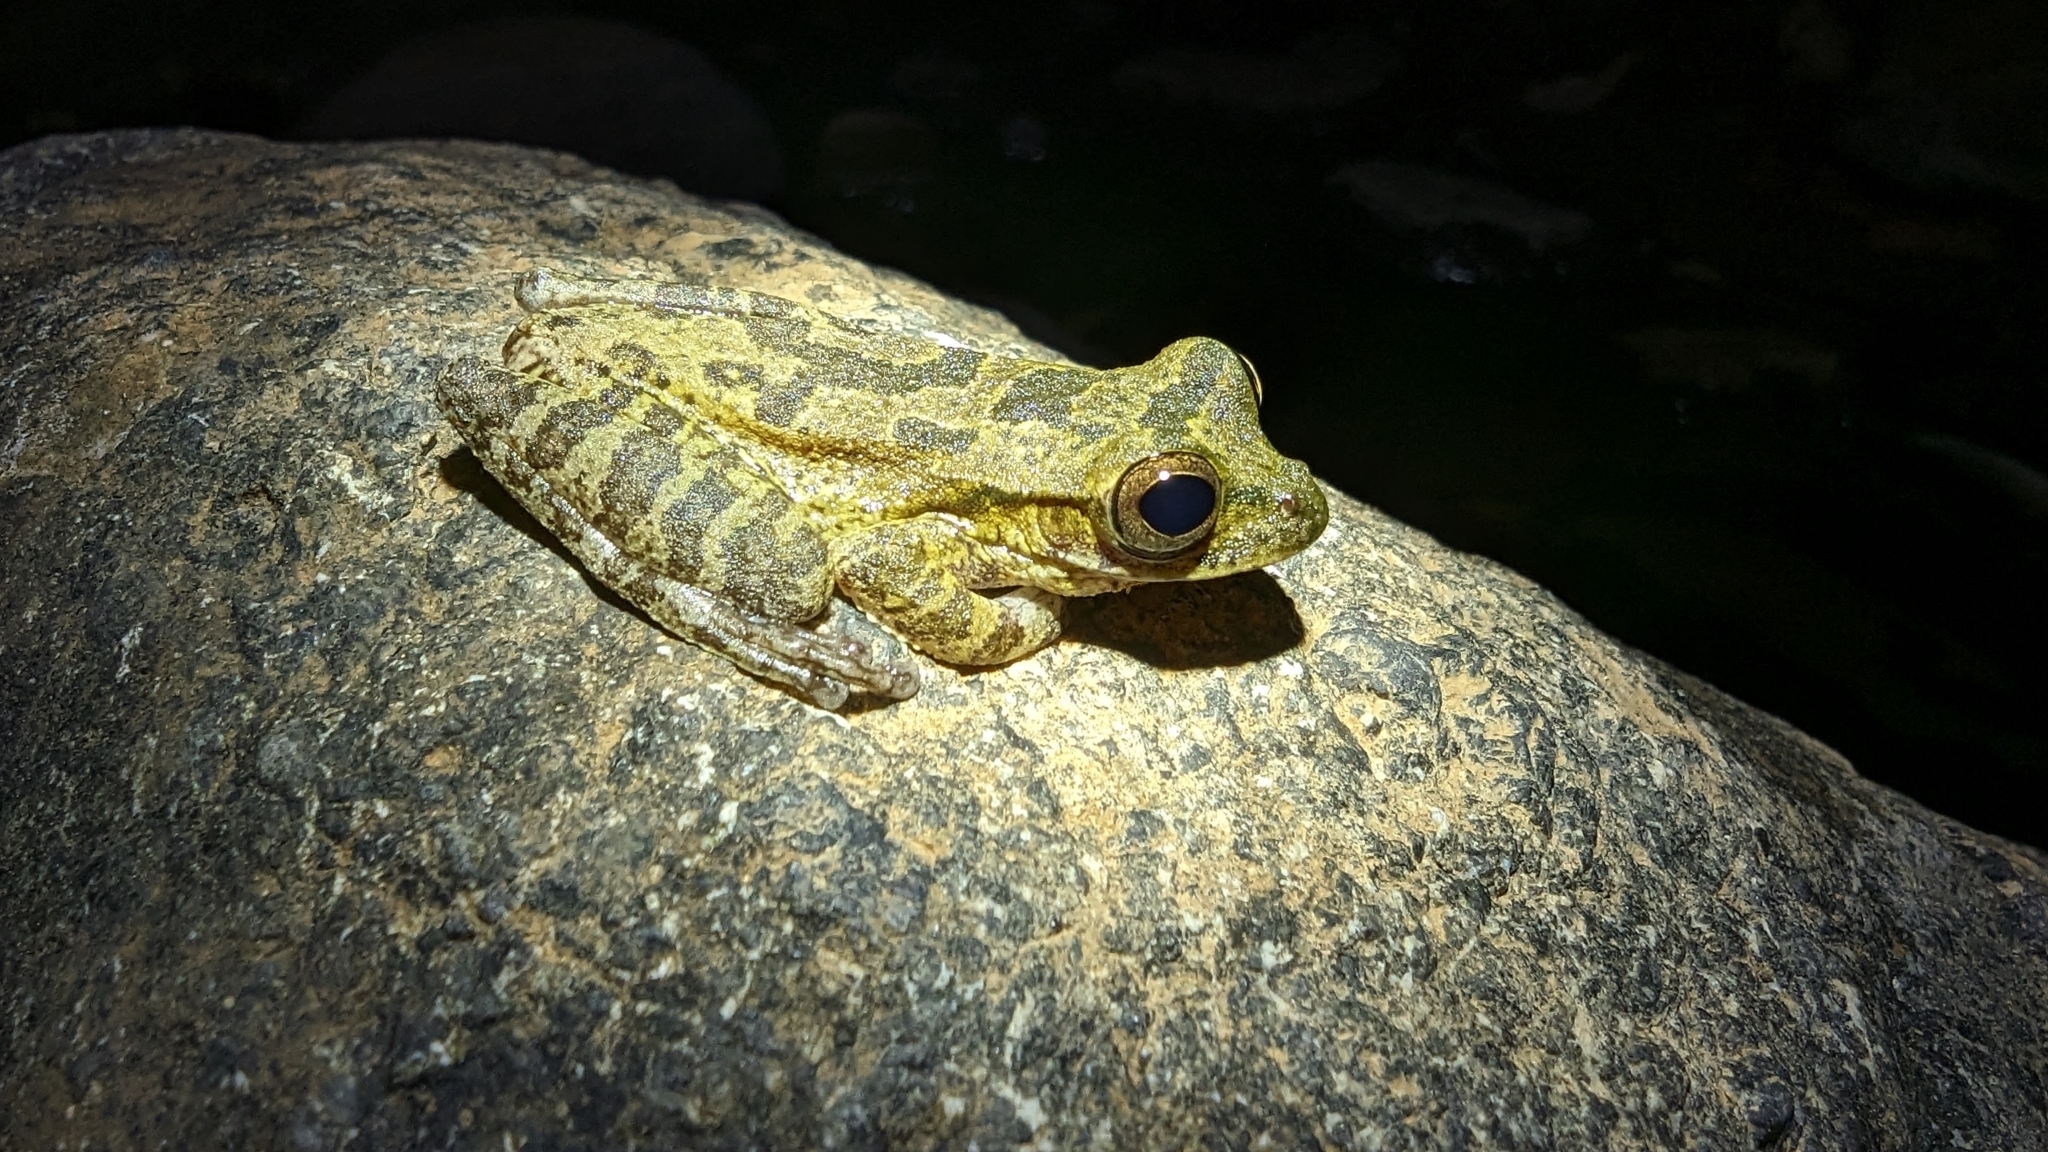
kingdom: Animalia
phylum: Chordata
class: Amphibia
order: Anura
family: Hylidae
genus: Smilisca
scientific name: Smilisca sordida
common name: Veragua cross-banded treefrog
